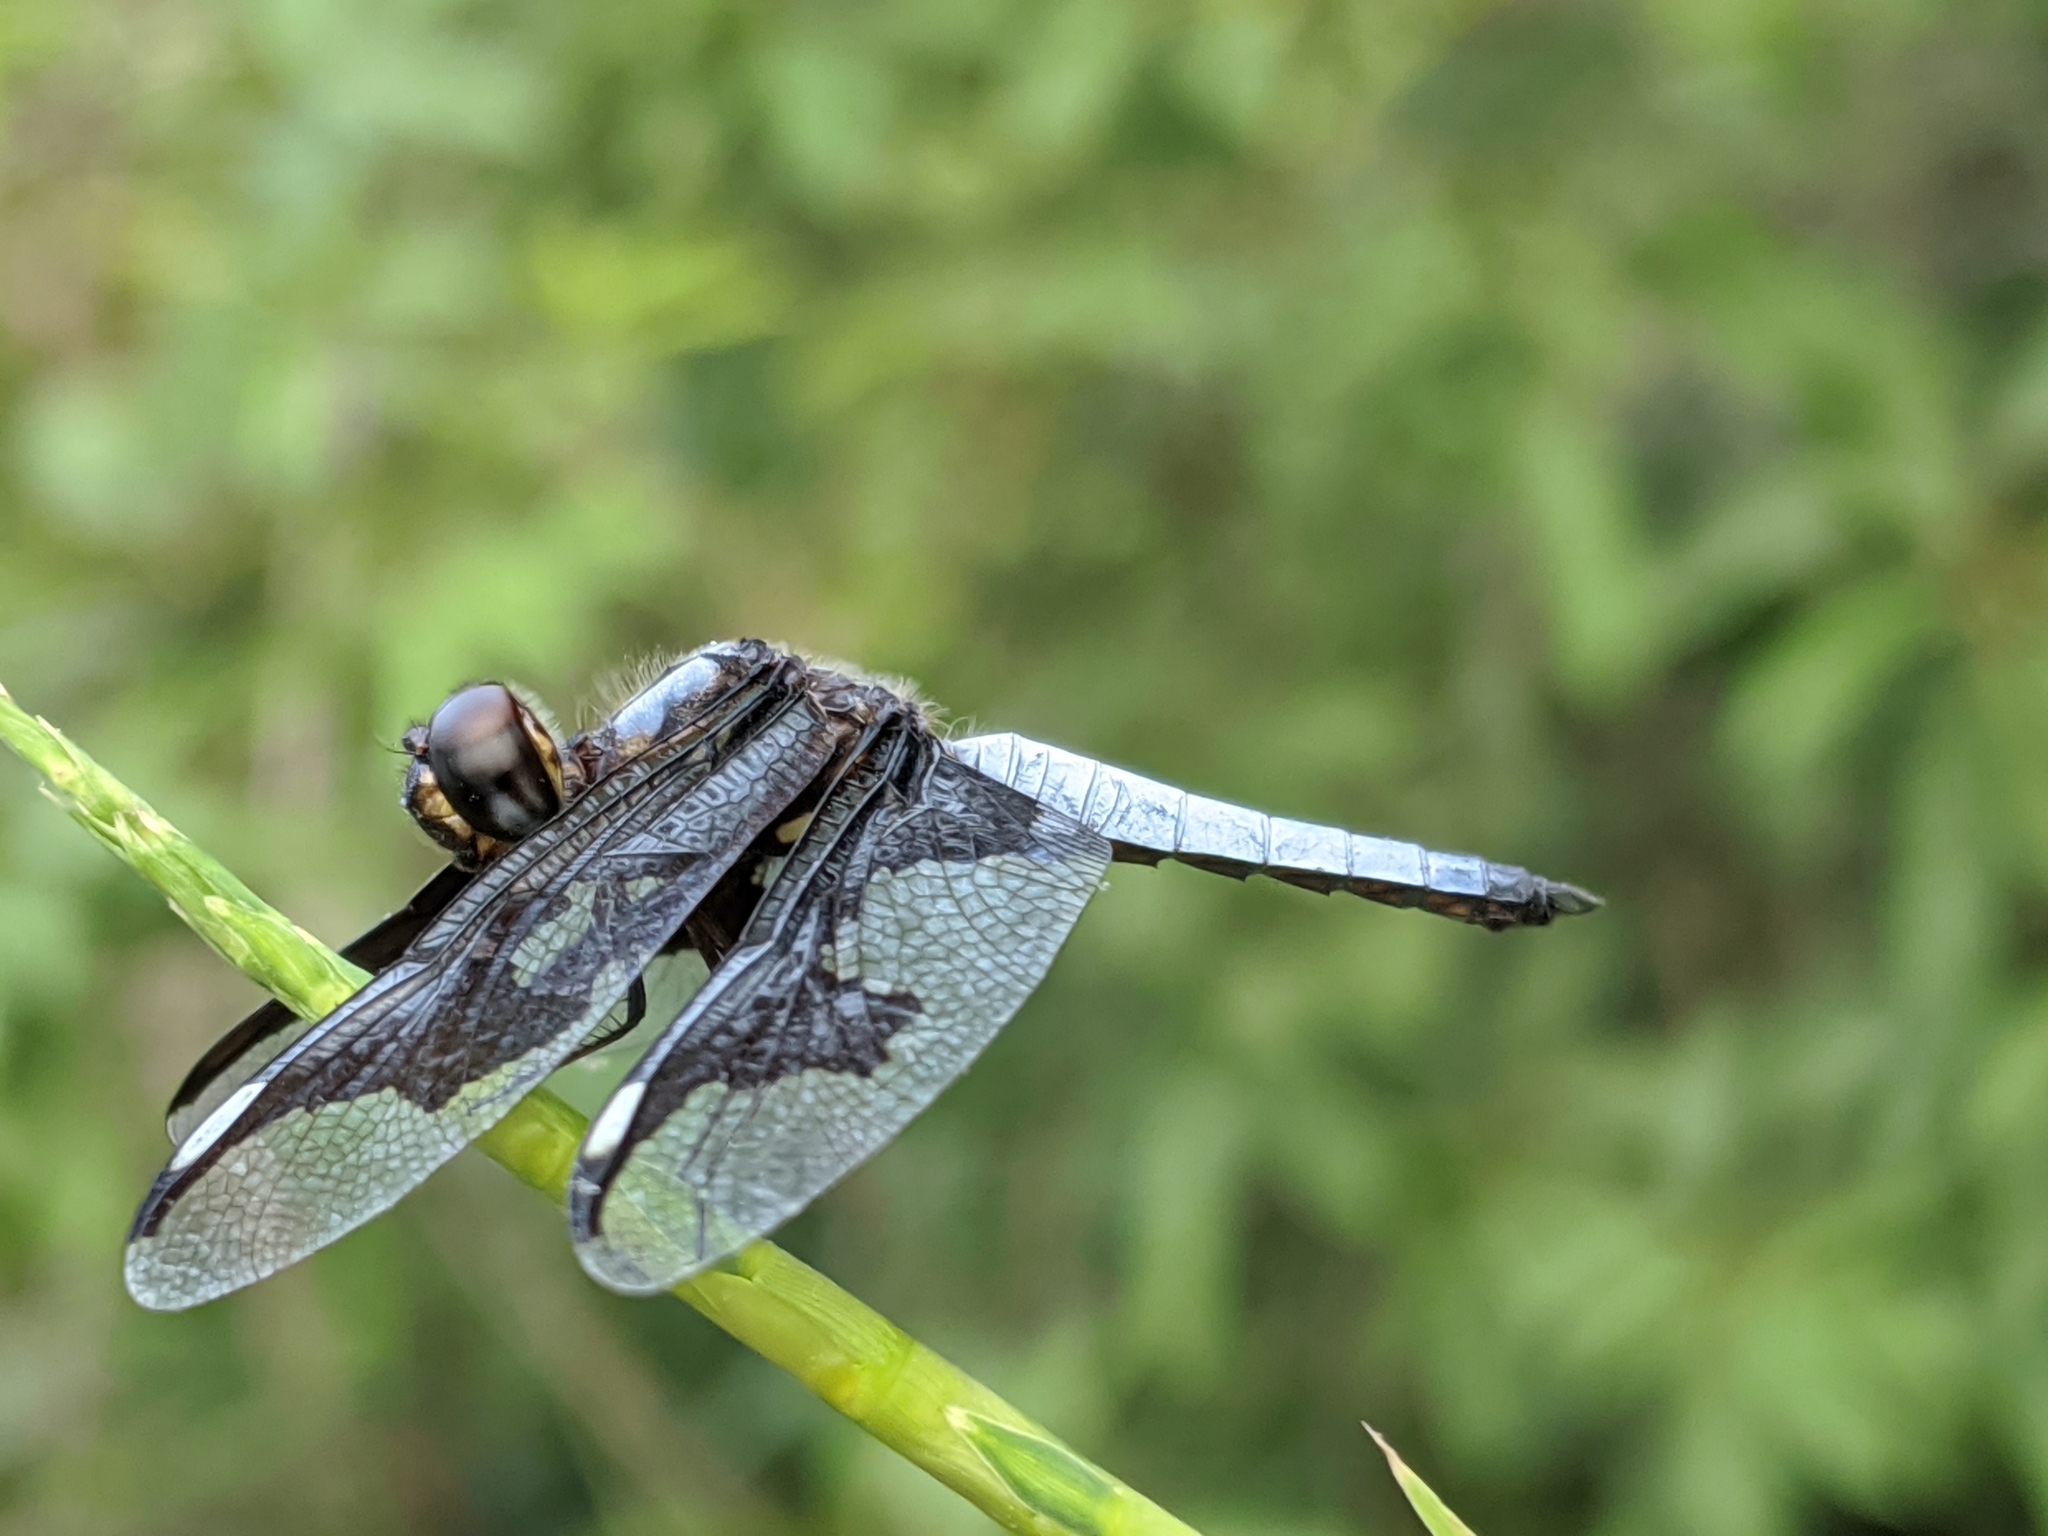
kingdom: Animalia
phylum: Arthropoda
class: Insecta
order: Odonata
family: Libellulidae
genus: Palpopleura
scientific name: Palpopleura portia
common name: Portia widow
